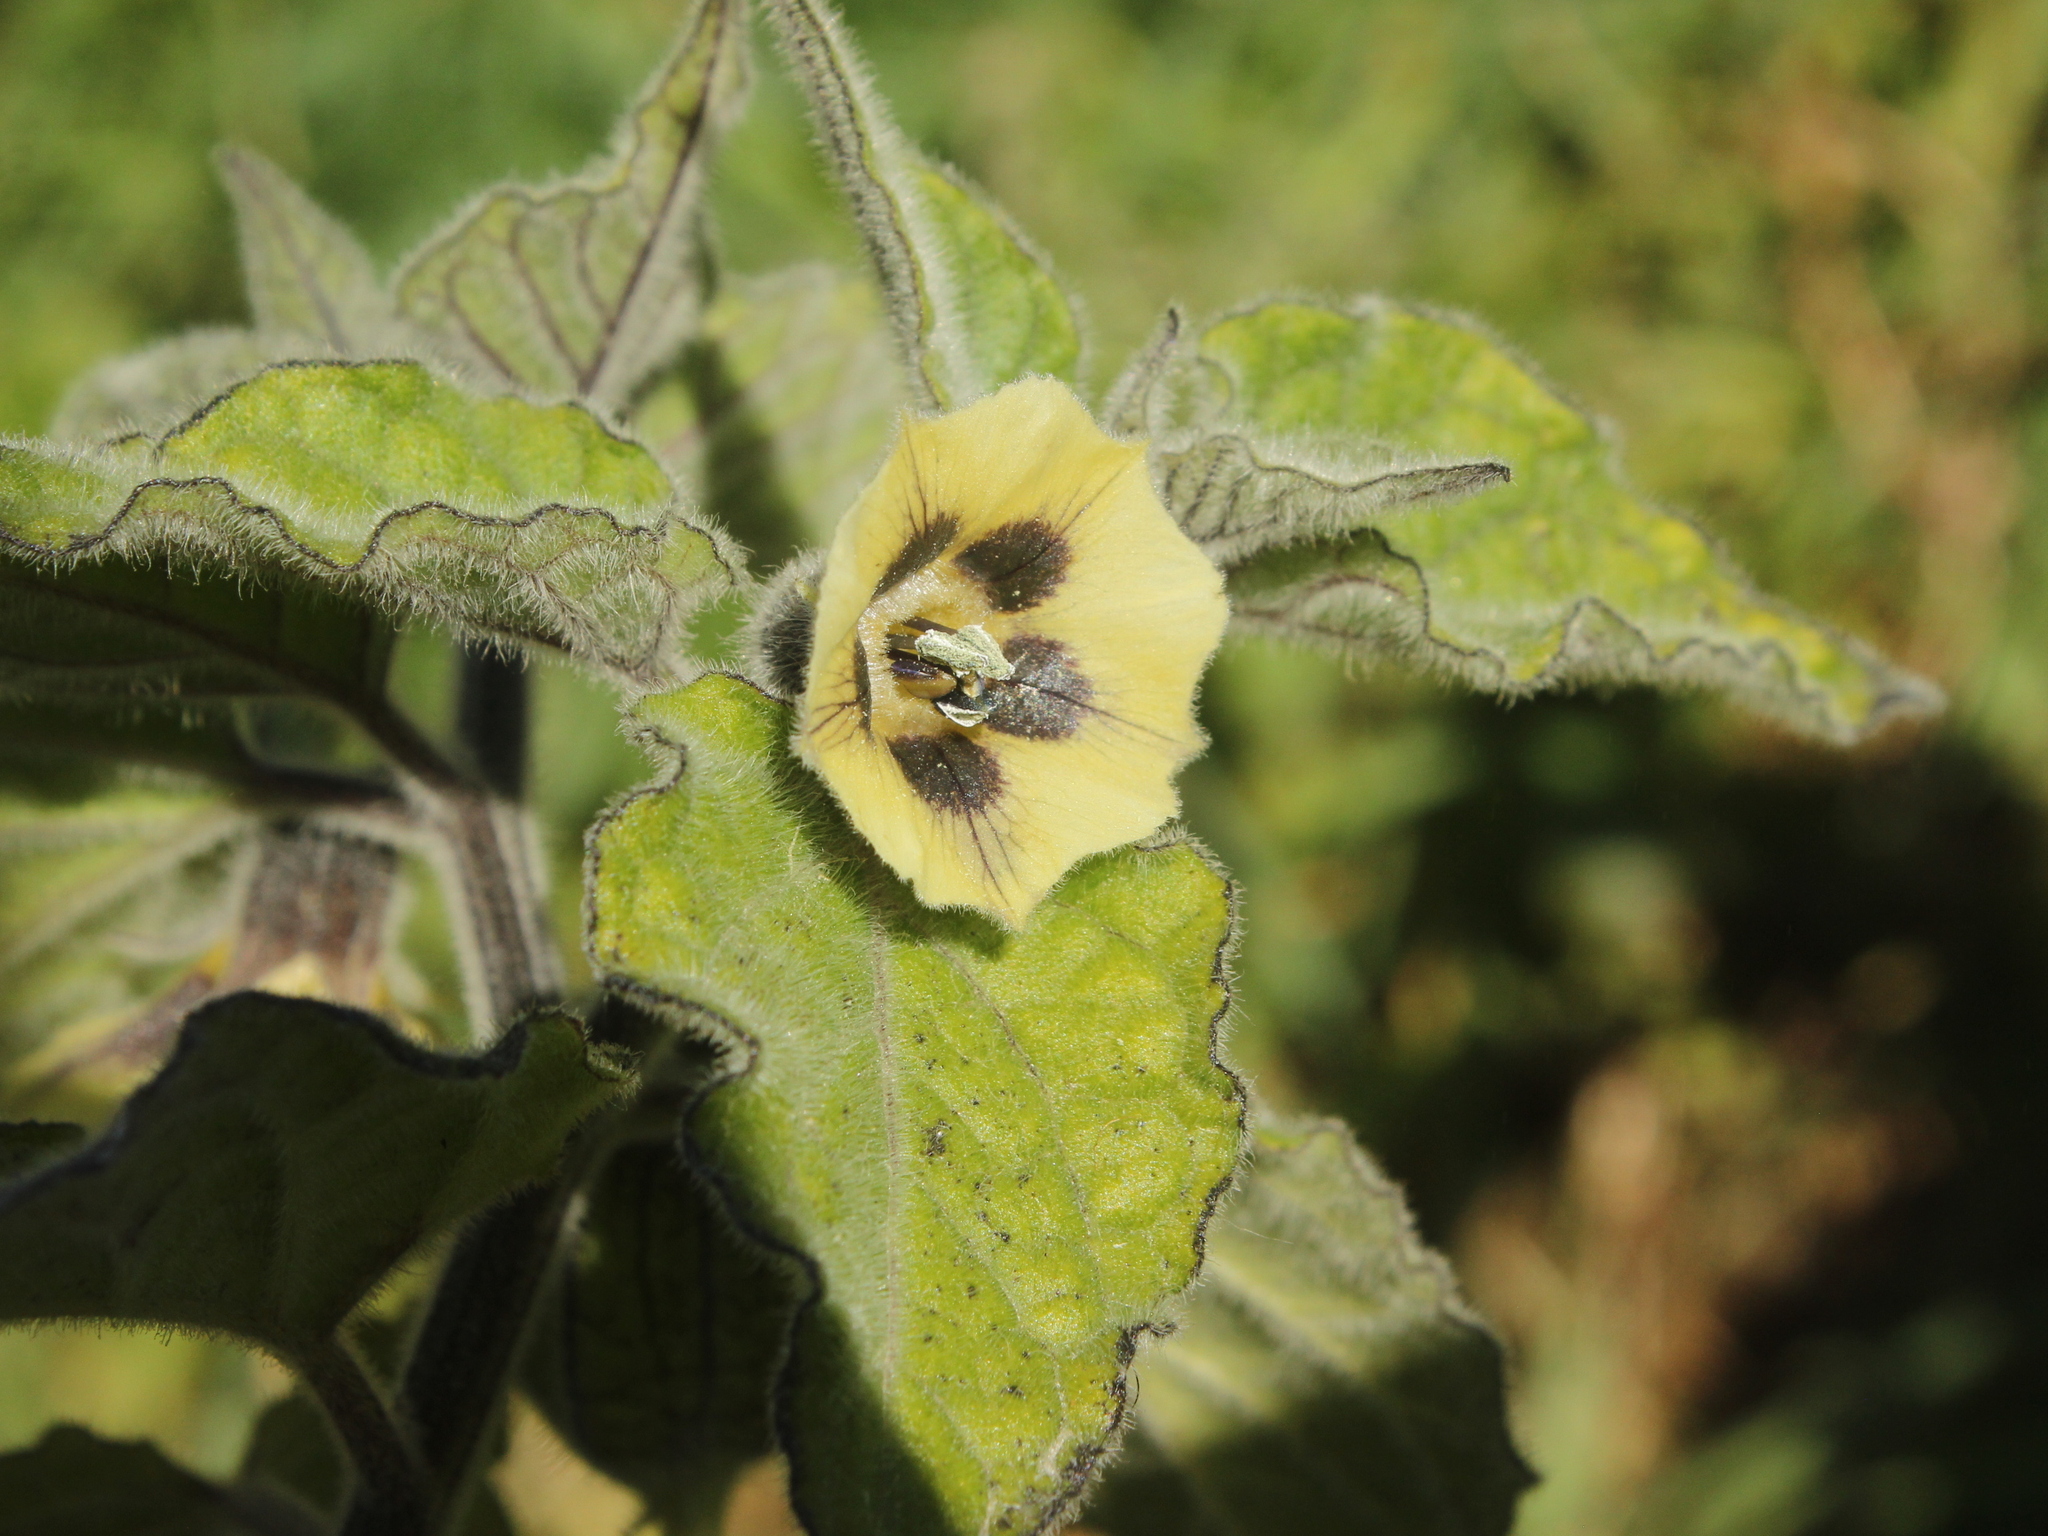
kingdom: Plantae
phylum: Tracheophyta
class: Magnoliopsida
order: Solanales
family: Solanaceae
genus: Physalis
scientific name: Physalis peruviana
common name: Cape-gooseberry
